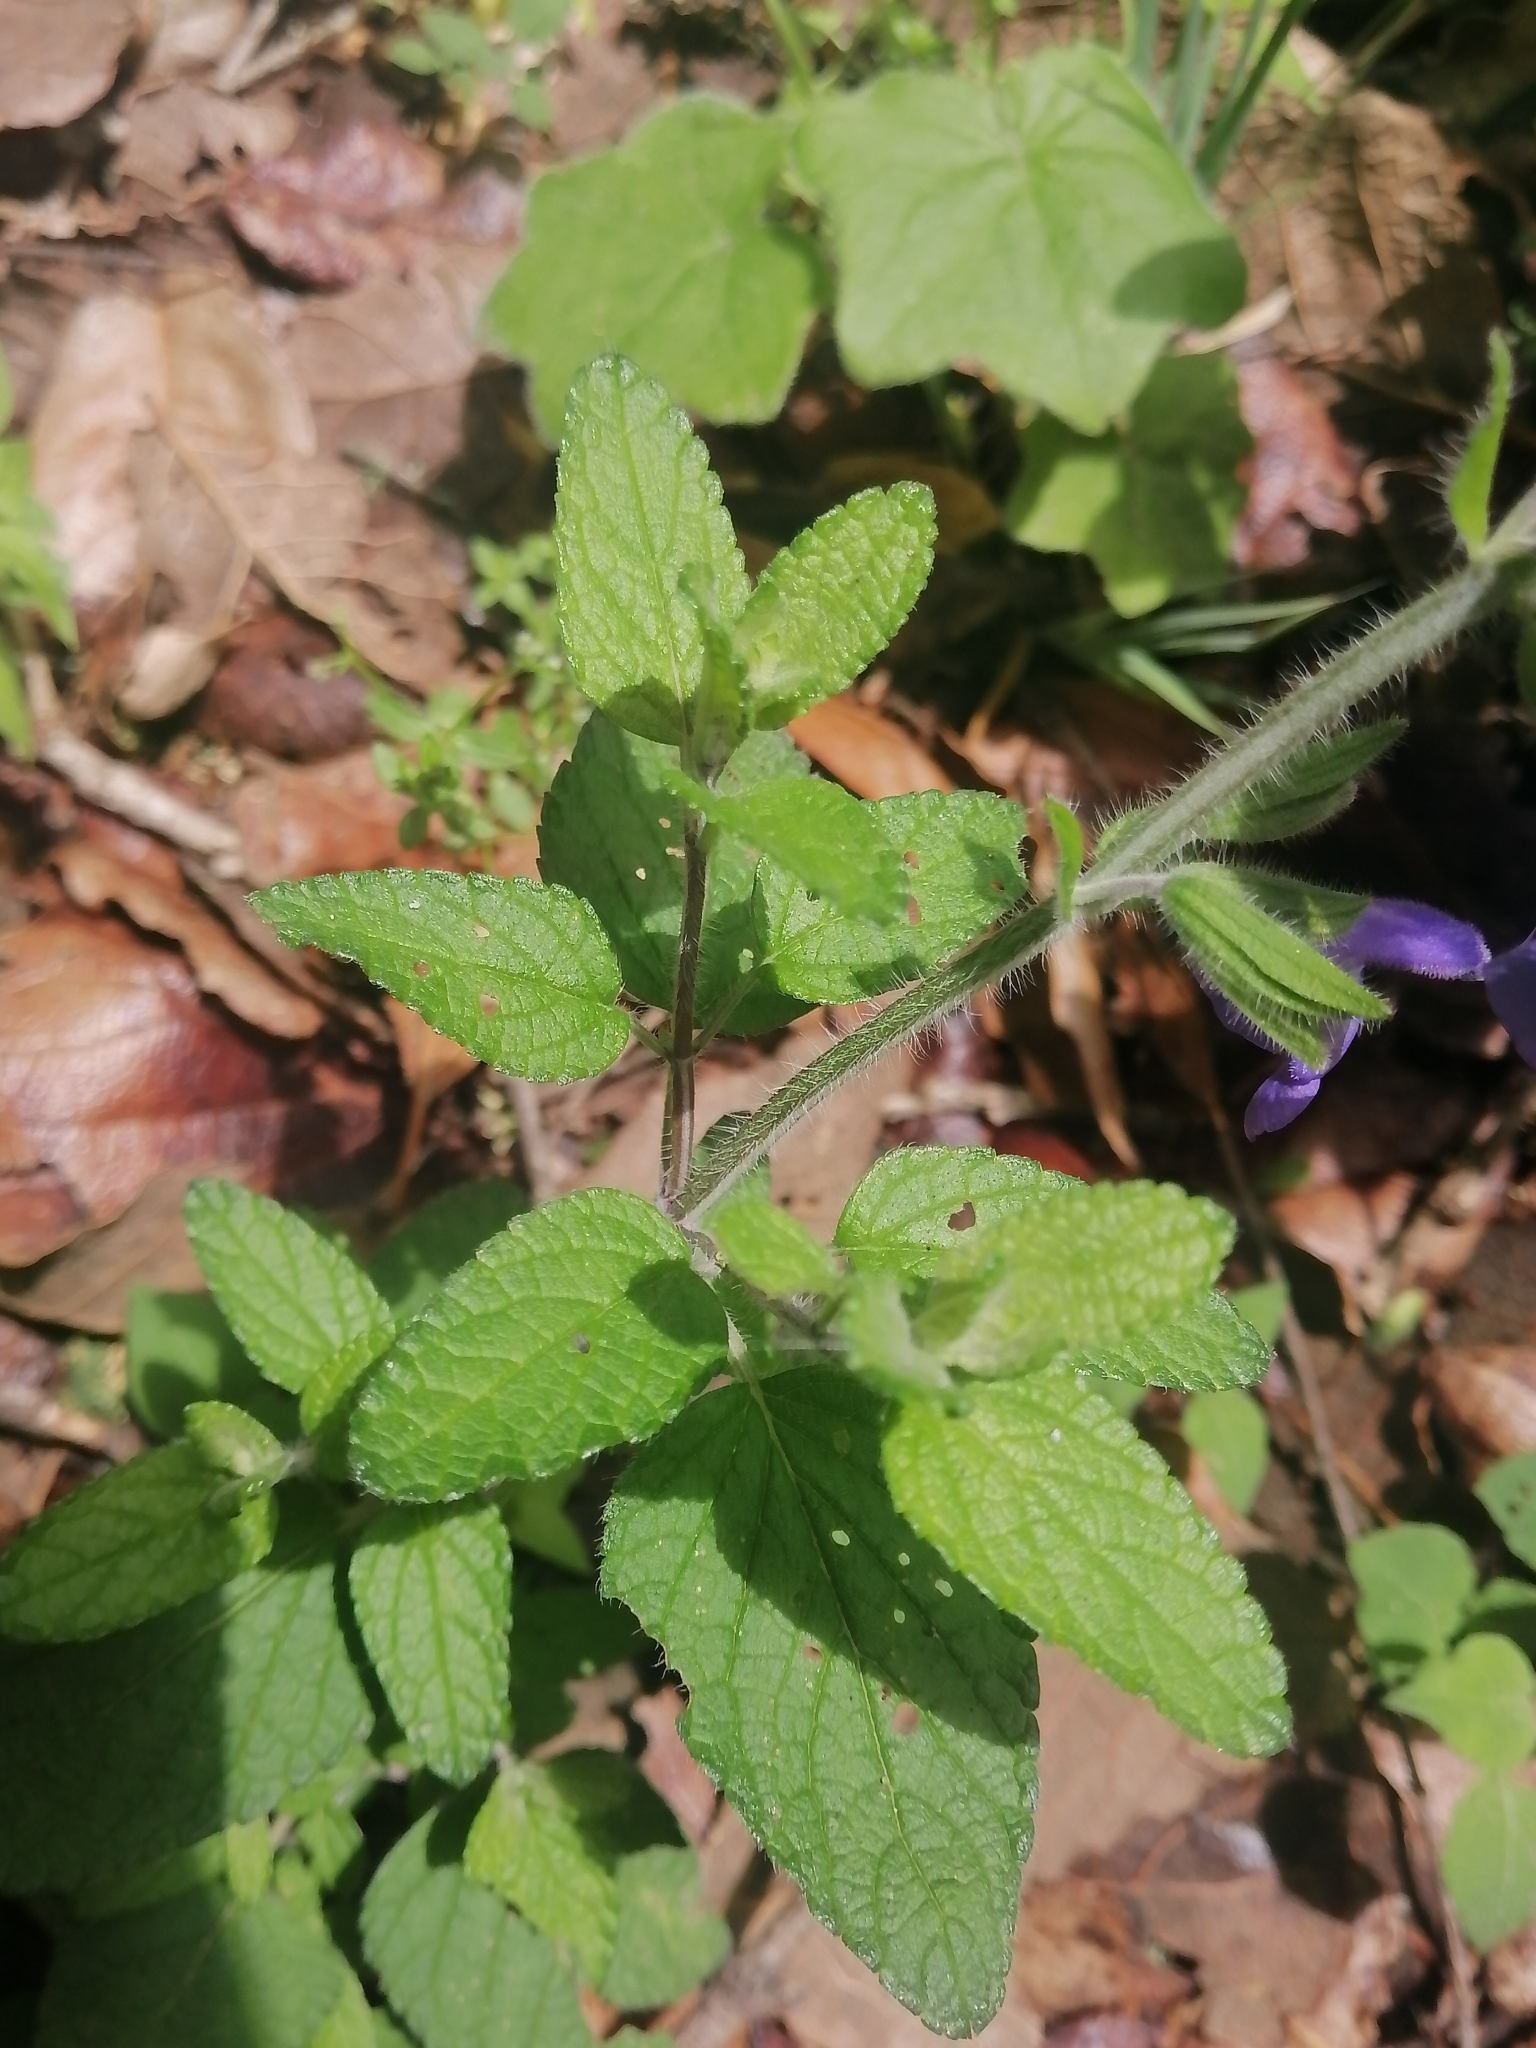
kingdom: Plantae
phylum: Tracheophyta
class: Magnoliopsida
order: Lamiales
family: Lamiaceae
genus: Salvia
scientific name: Salvia zamoranensis
